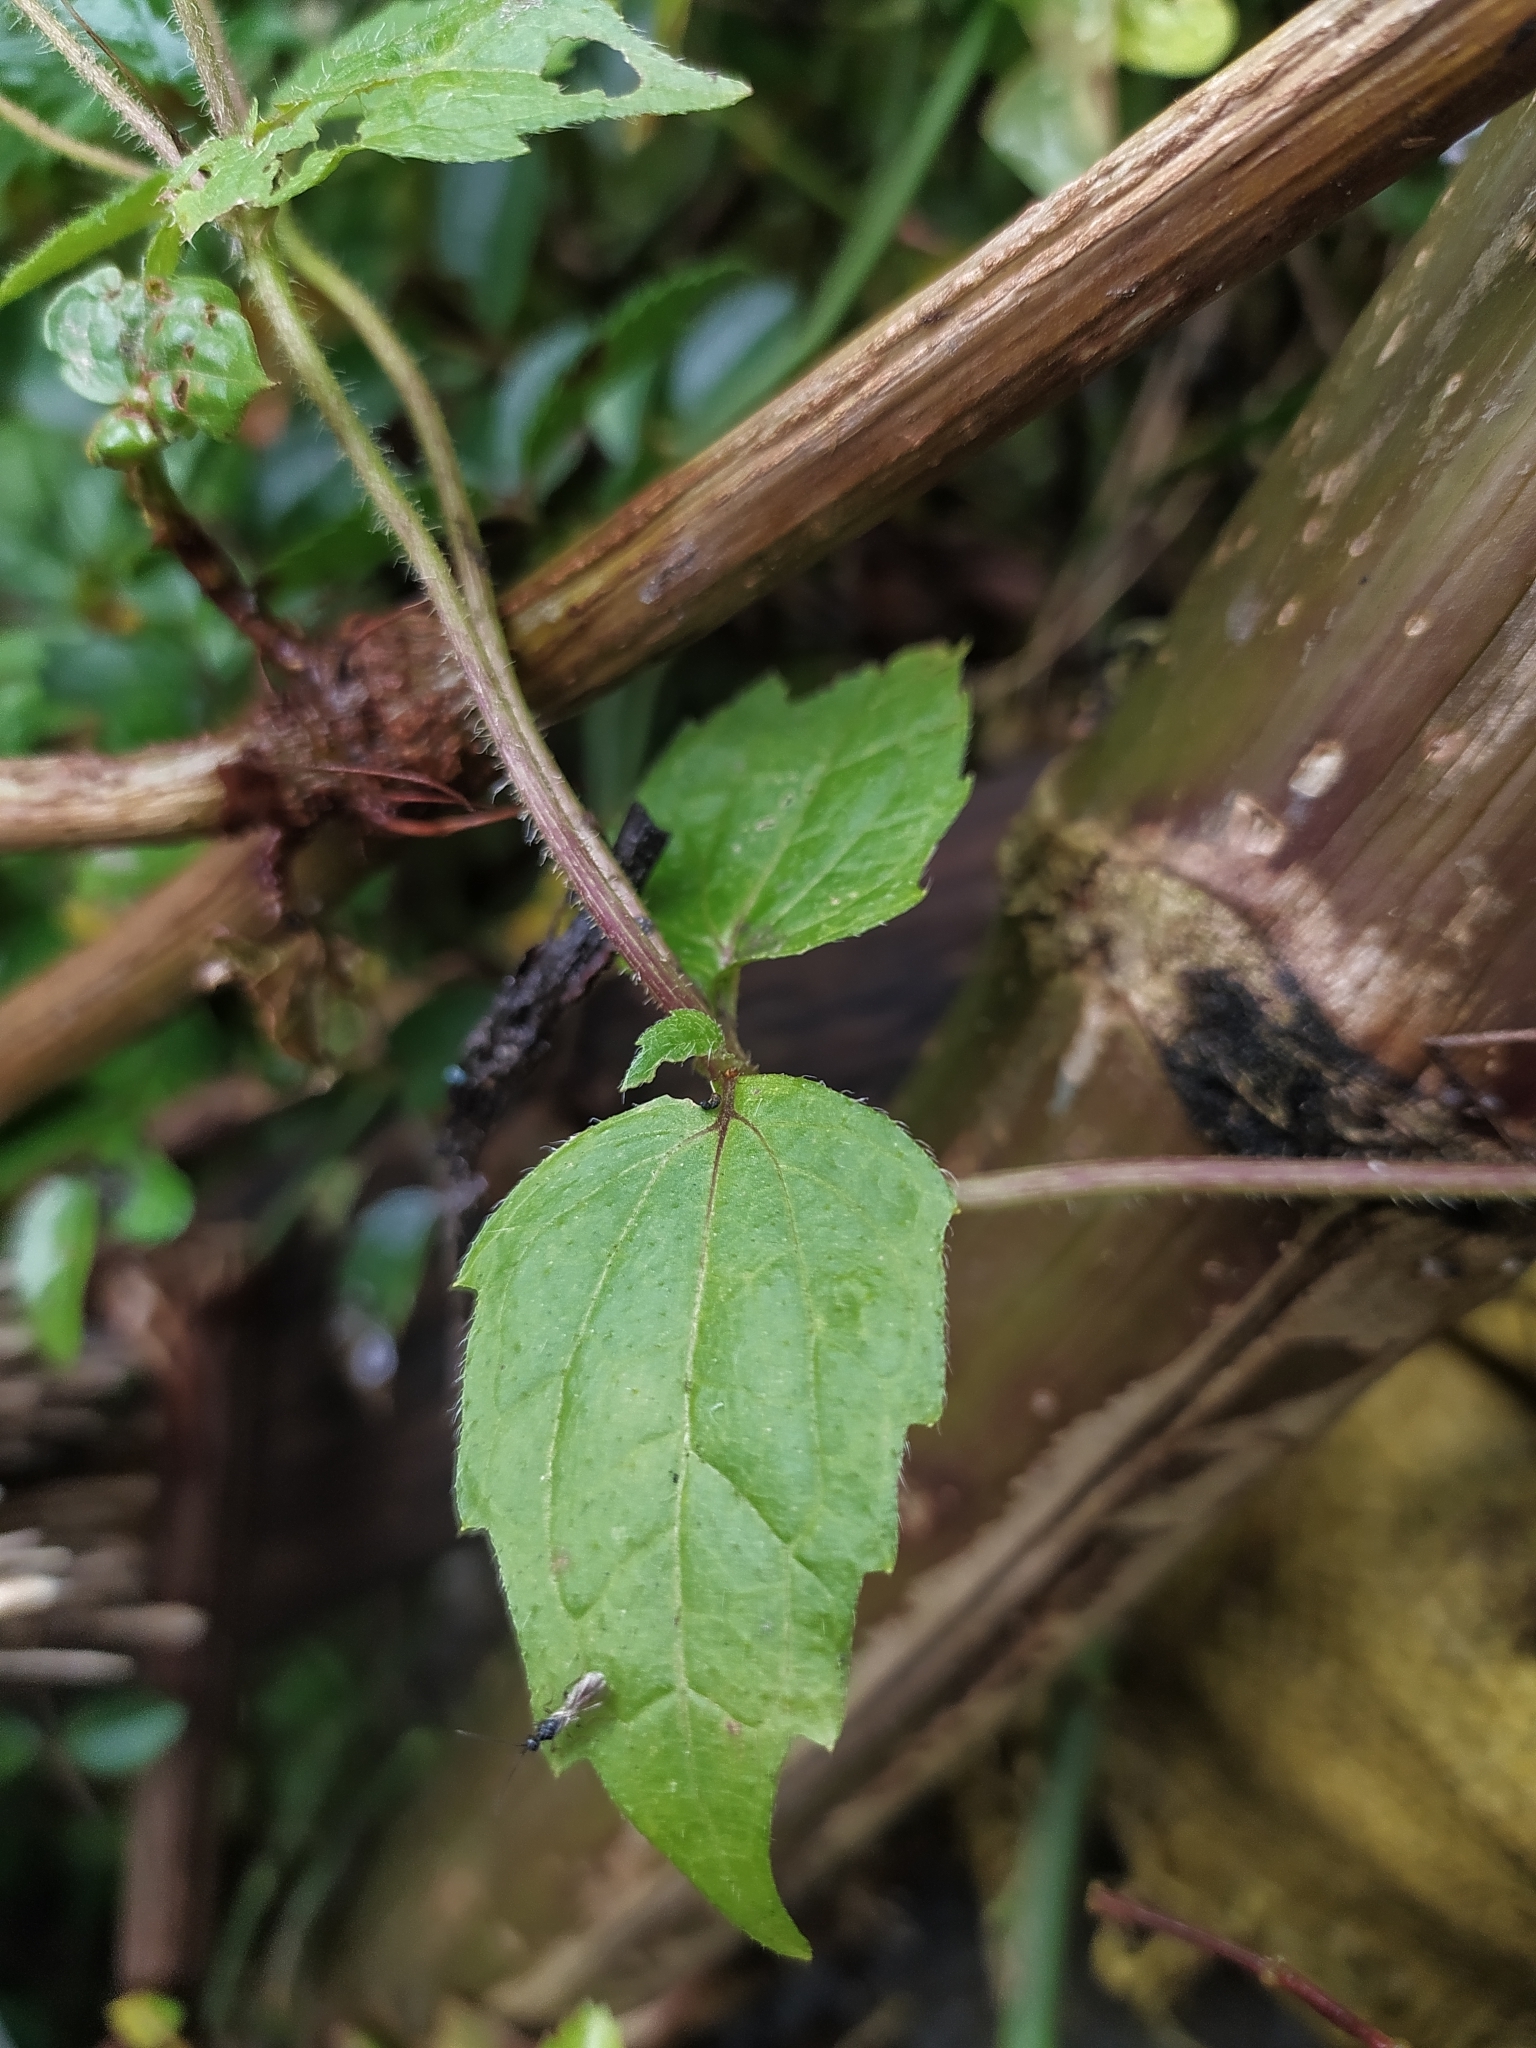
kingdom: Plantae
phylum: Tracheophyta
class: Magnoliopsida
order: Asterales
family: Asteraceae
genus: Galinsoga
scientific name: Galinsoga quadriradiata
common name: Shaggy soldier
